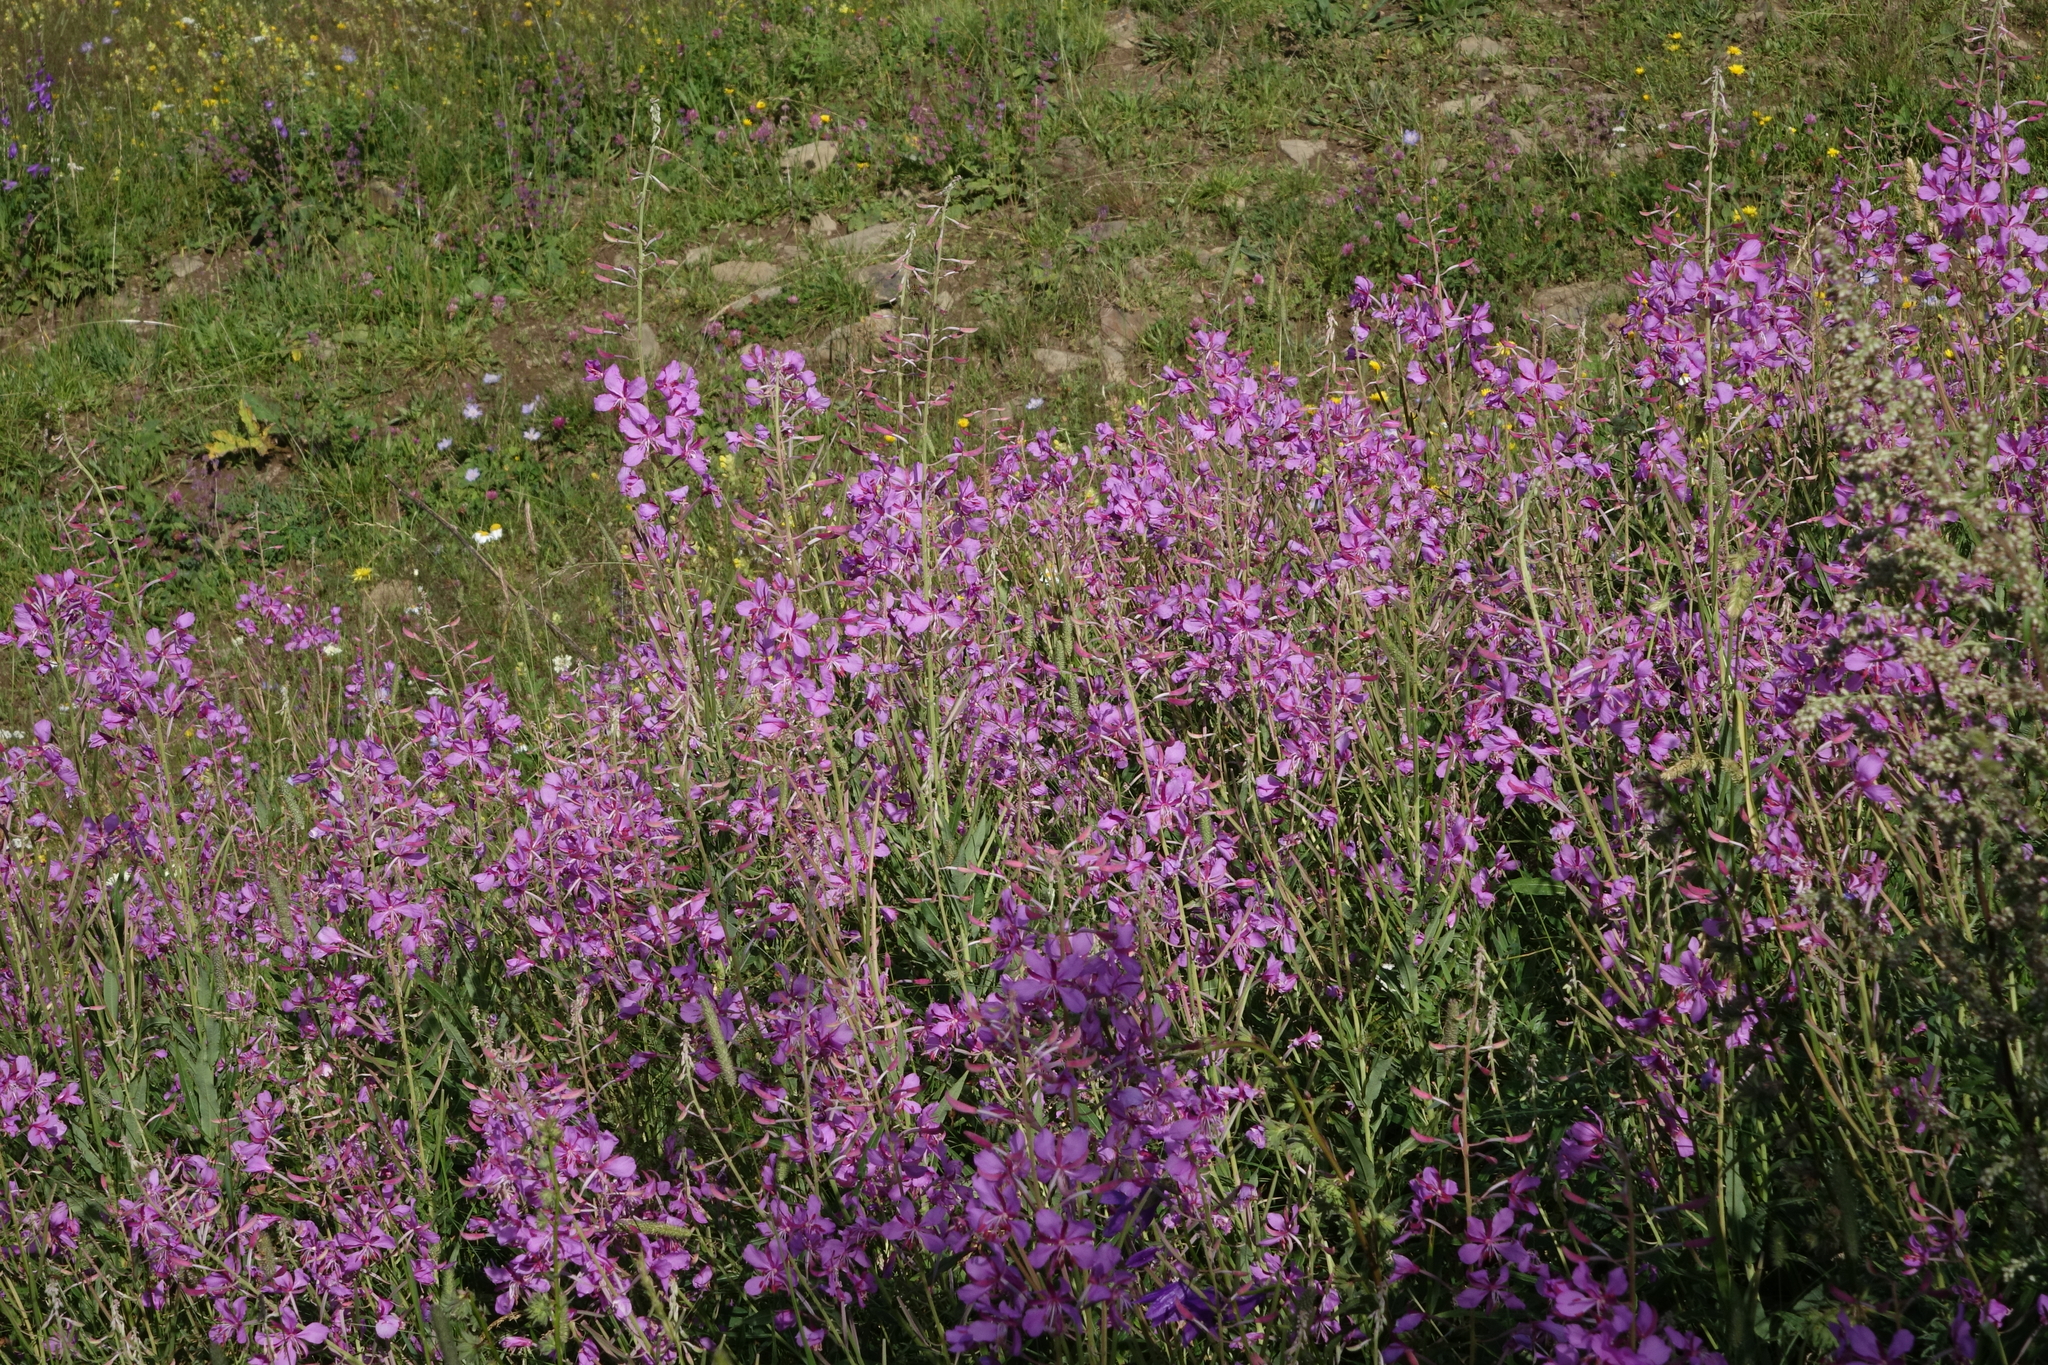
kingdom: Plantae
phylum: Tracheophyta
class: Magnoliopsida
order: Myrtales
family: Onagraceae
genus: Chamaenerion
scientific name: Chamaenerion angustifolium
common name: Fireweed
